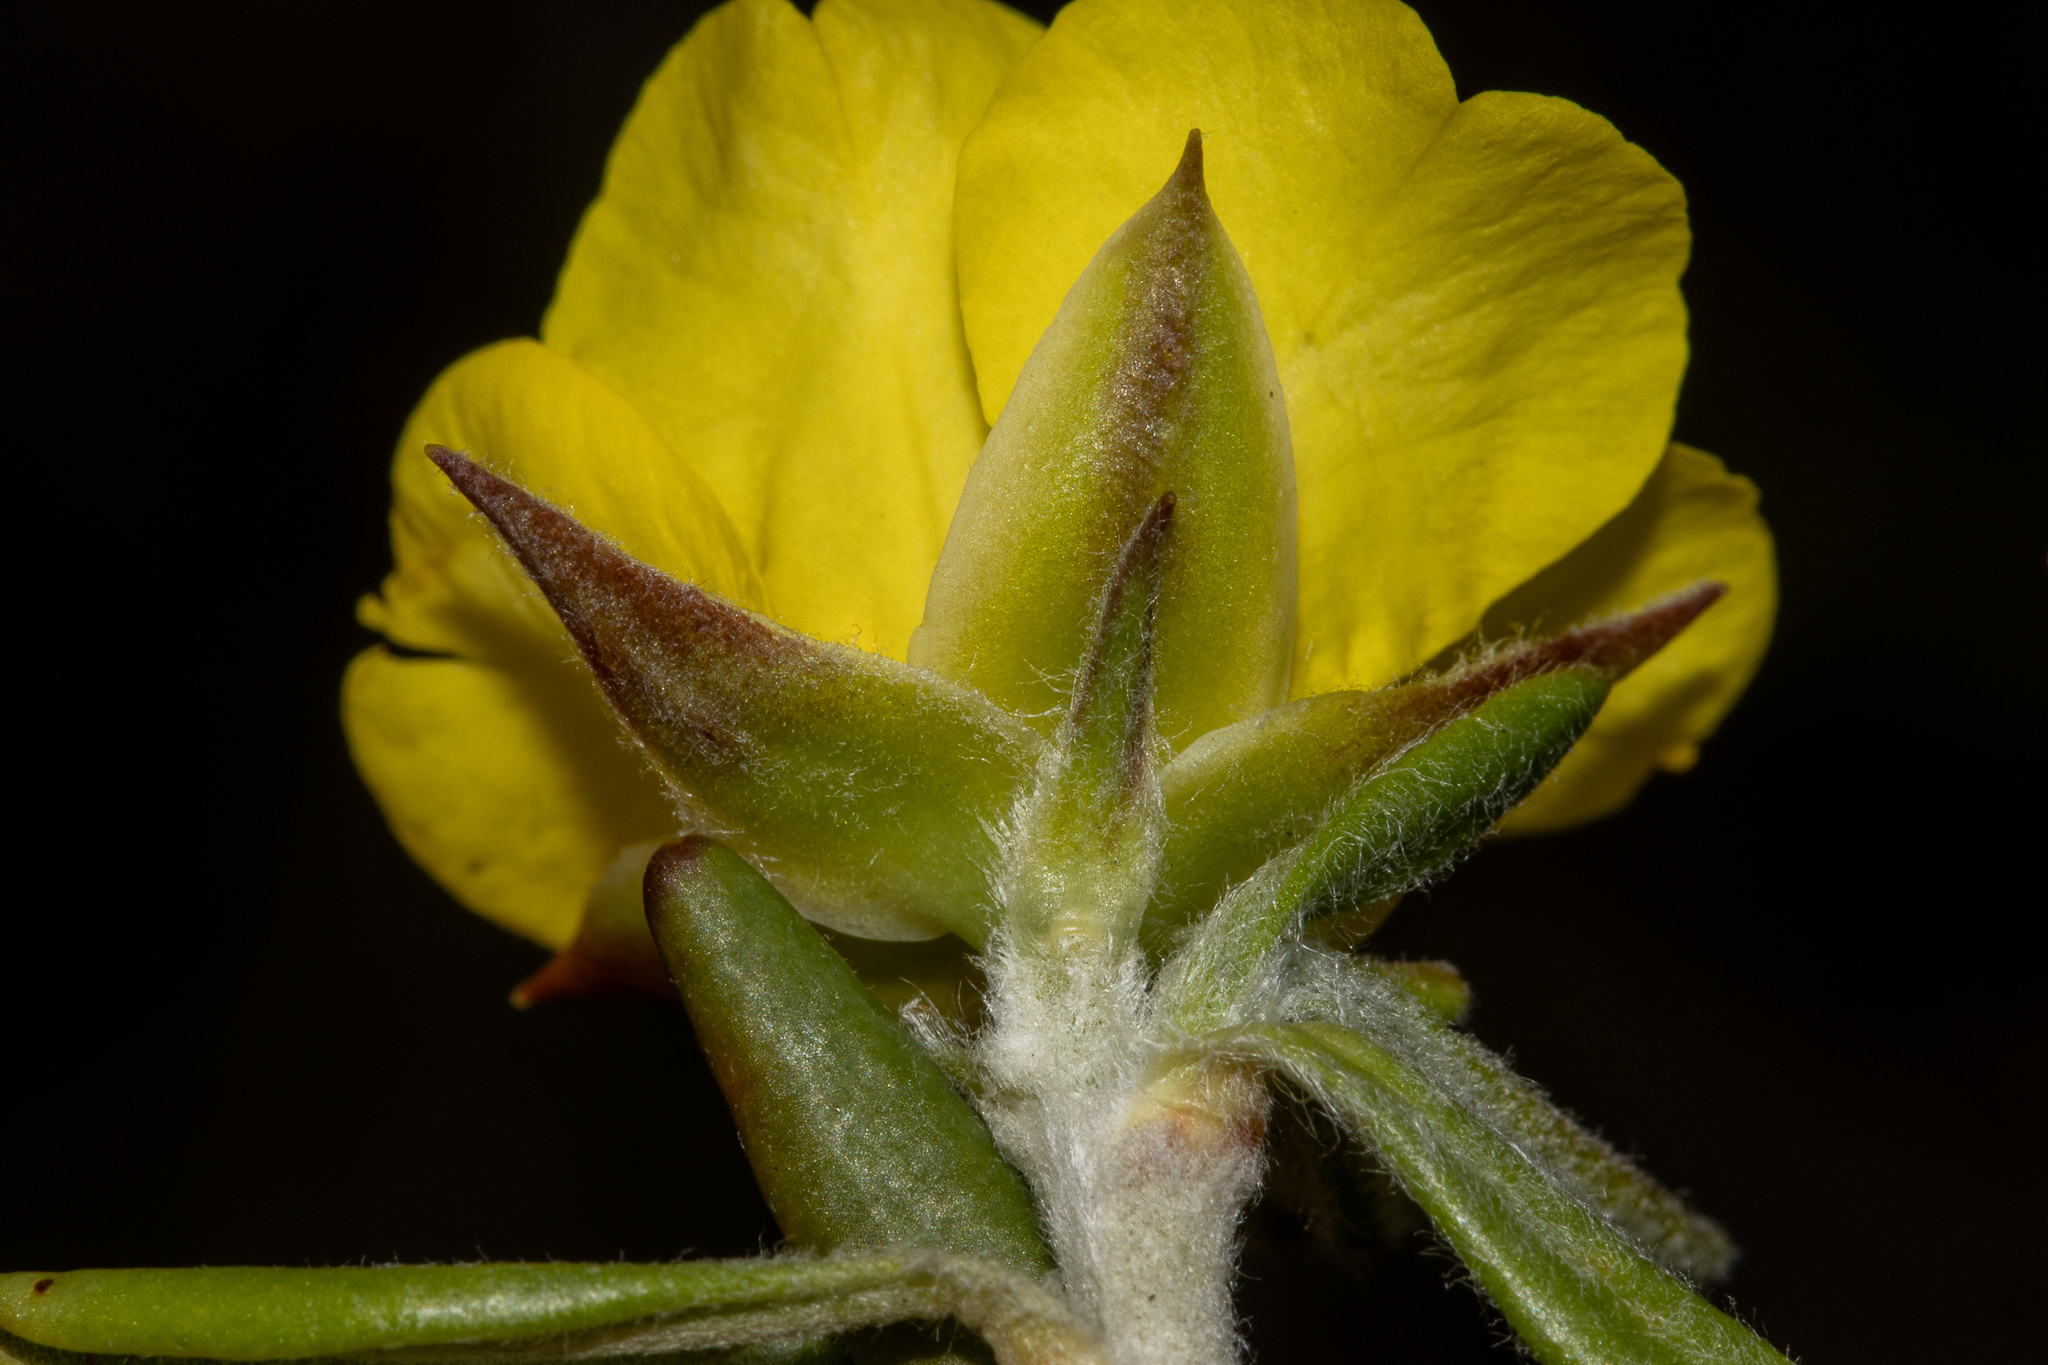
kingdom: Plantae
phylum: Tracheophyta
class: Magnoliopsida
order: Dilleniales
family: Dilleniaceae
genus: Hibbertia
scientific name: Hibbertia pubens
